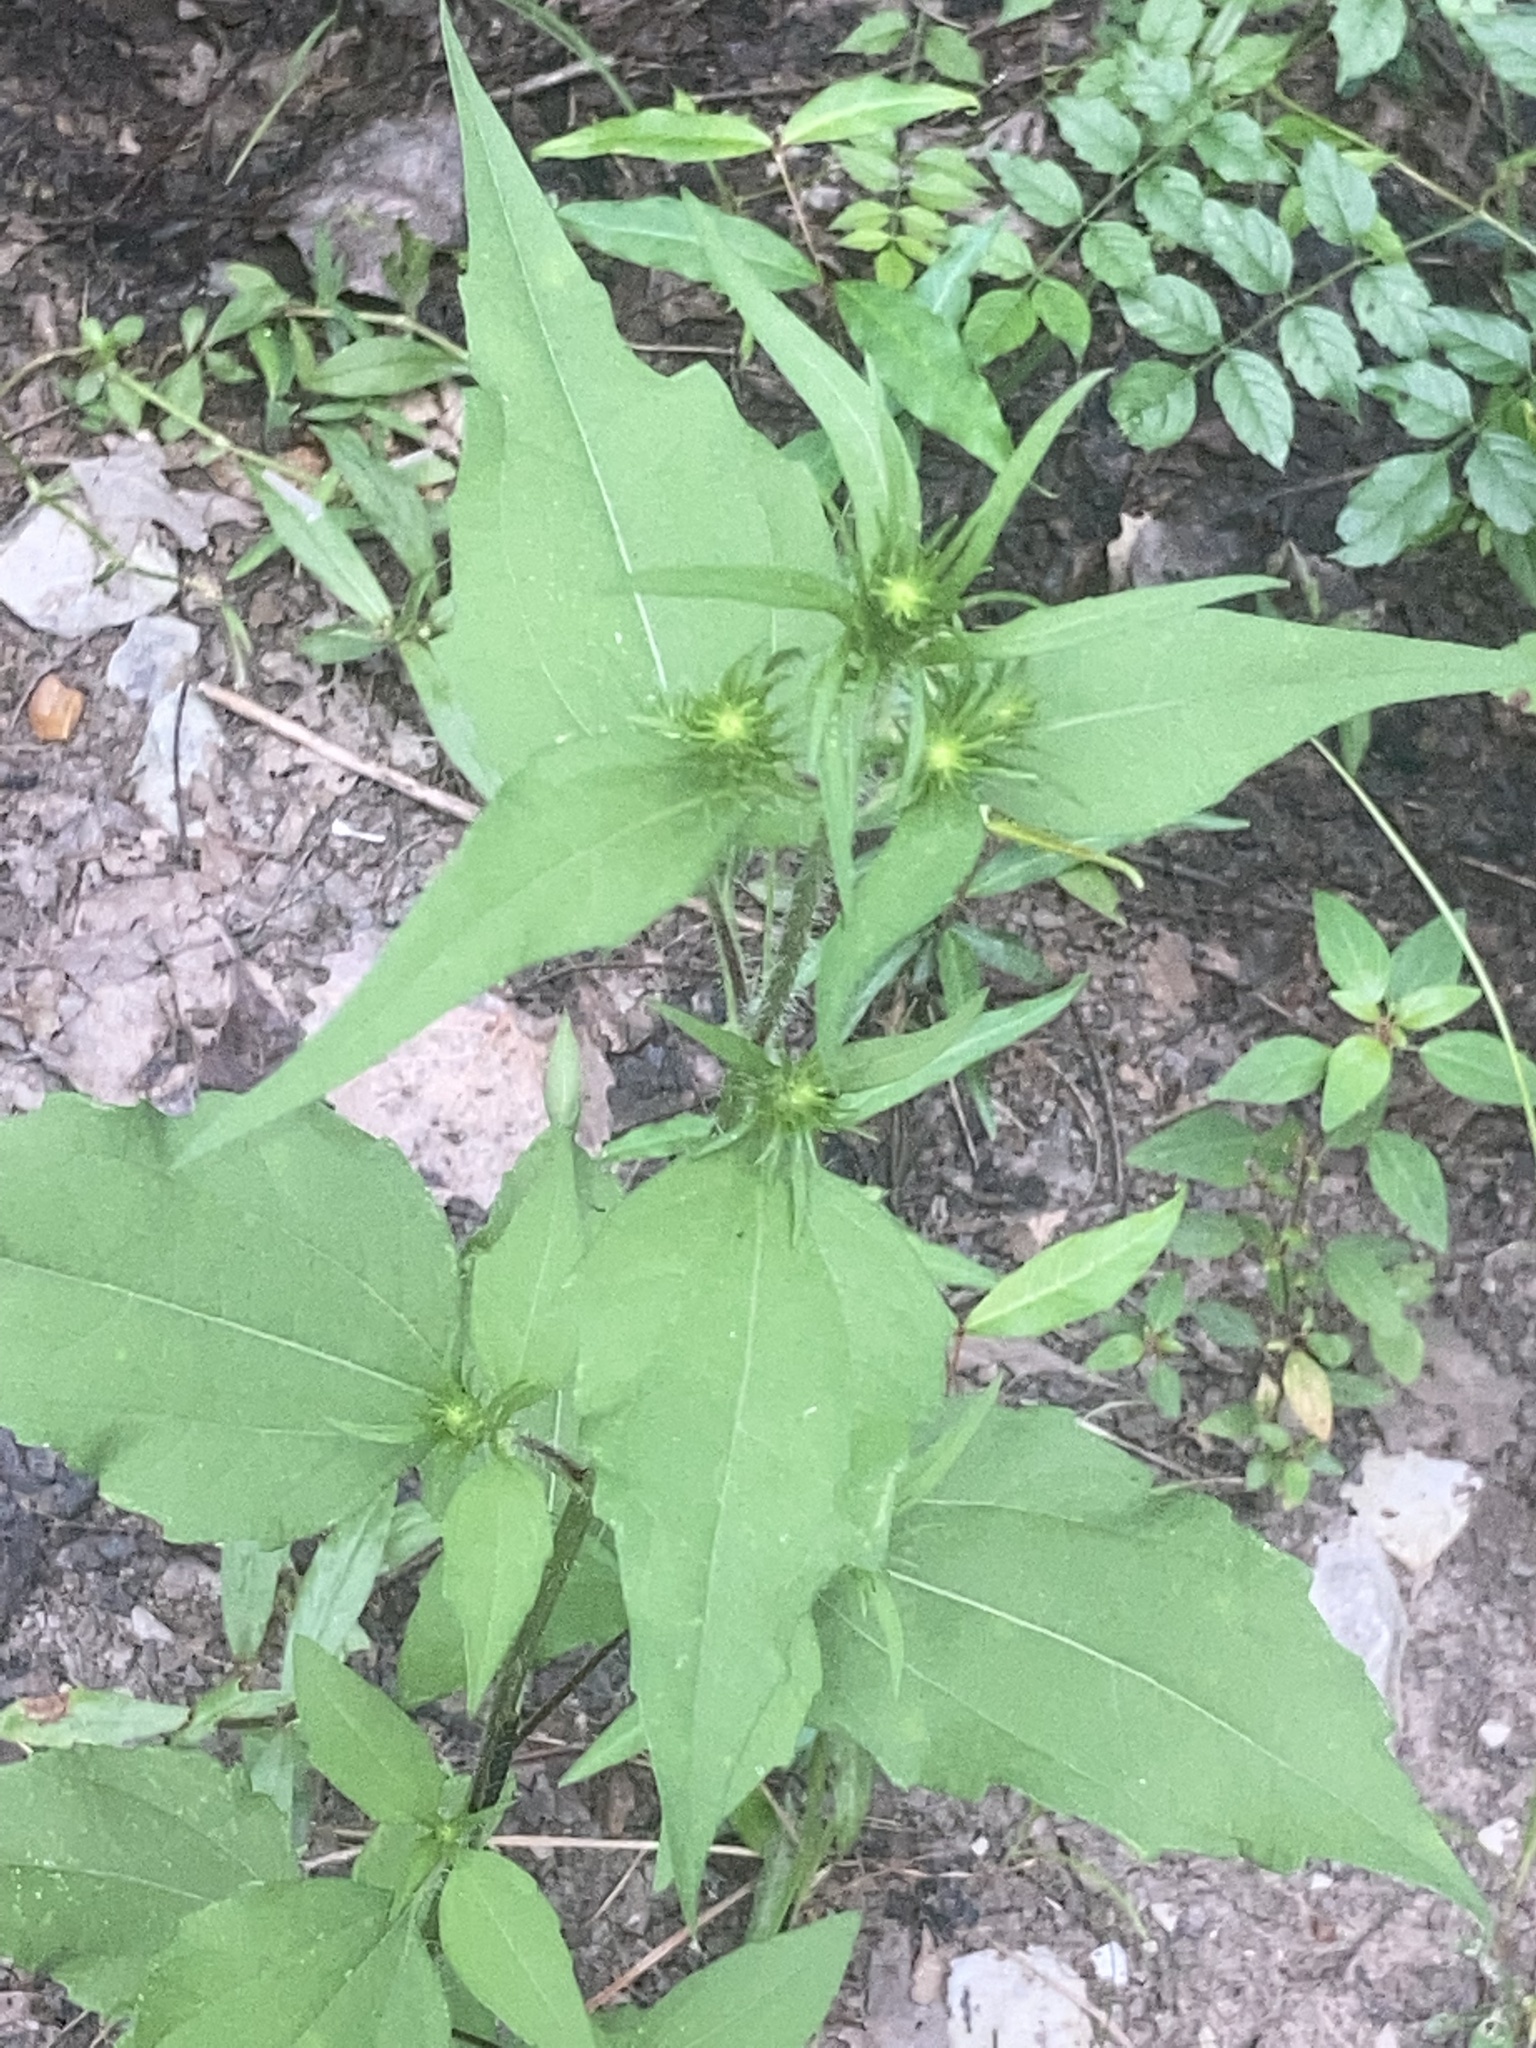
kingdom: Plantae
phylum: Tracheophyta
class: Magnoliopsida
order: Asterales
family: Asteraceae
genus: Iva
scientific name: Iva annua
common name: Marsh-elder
